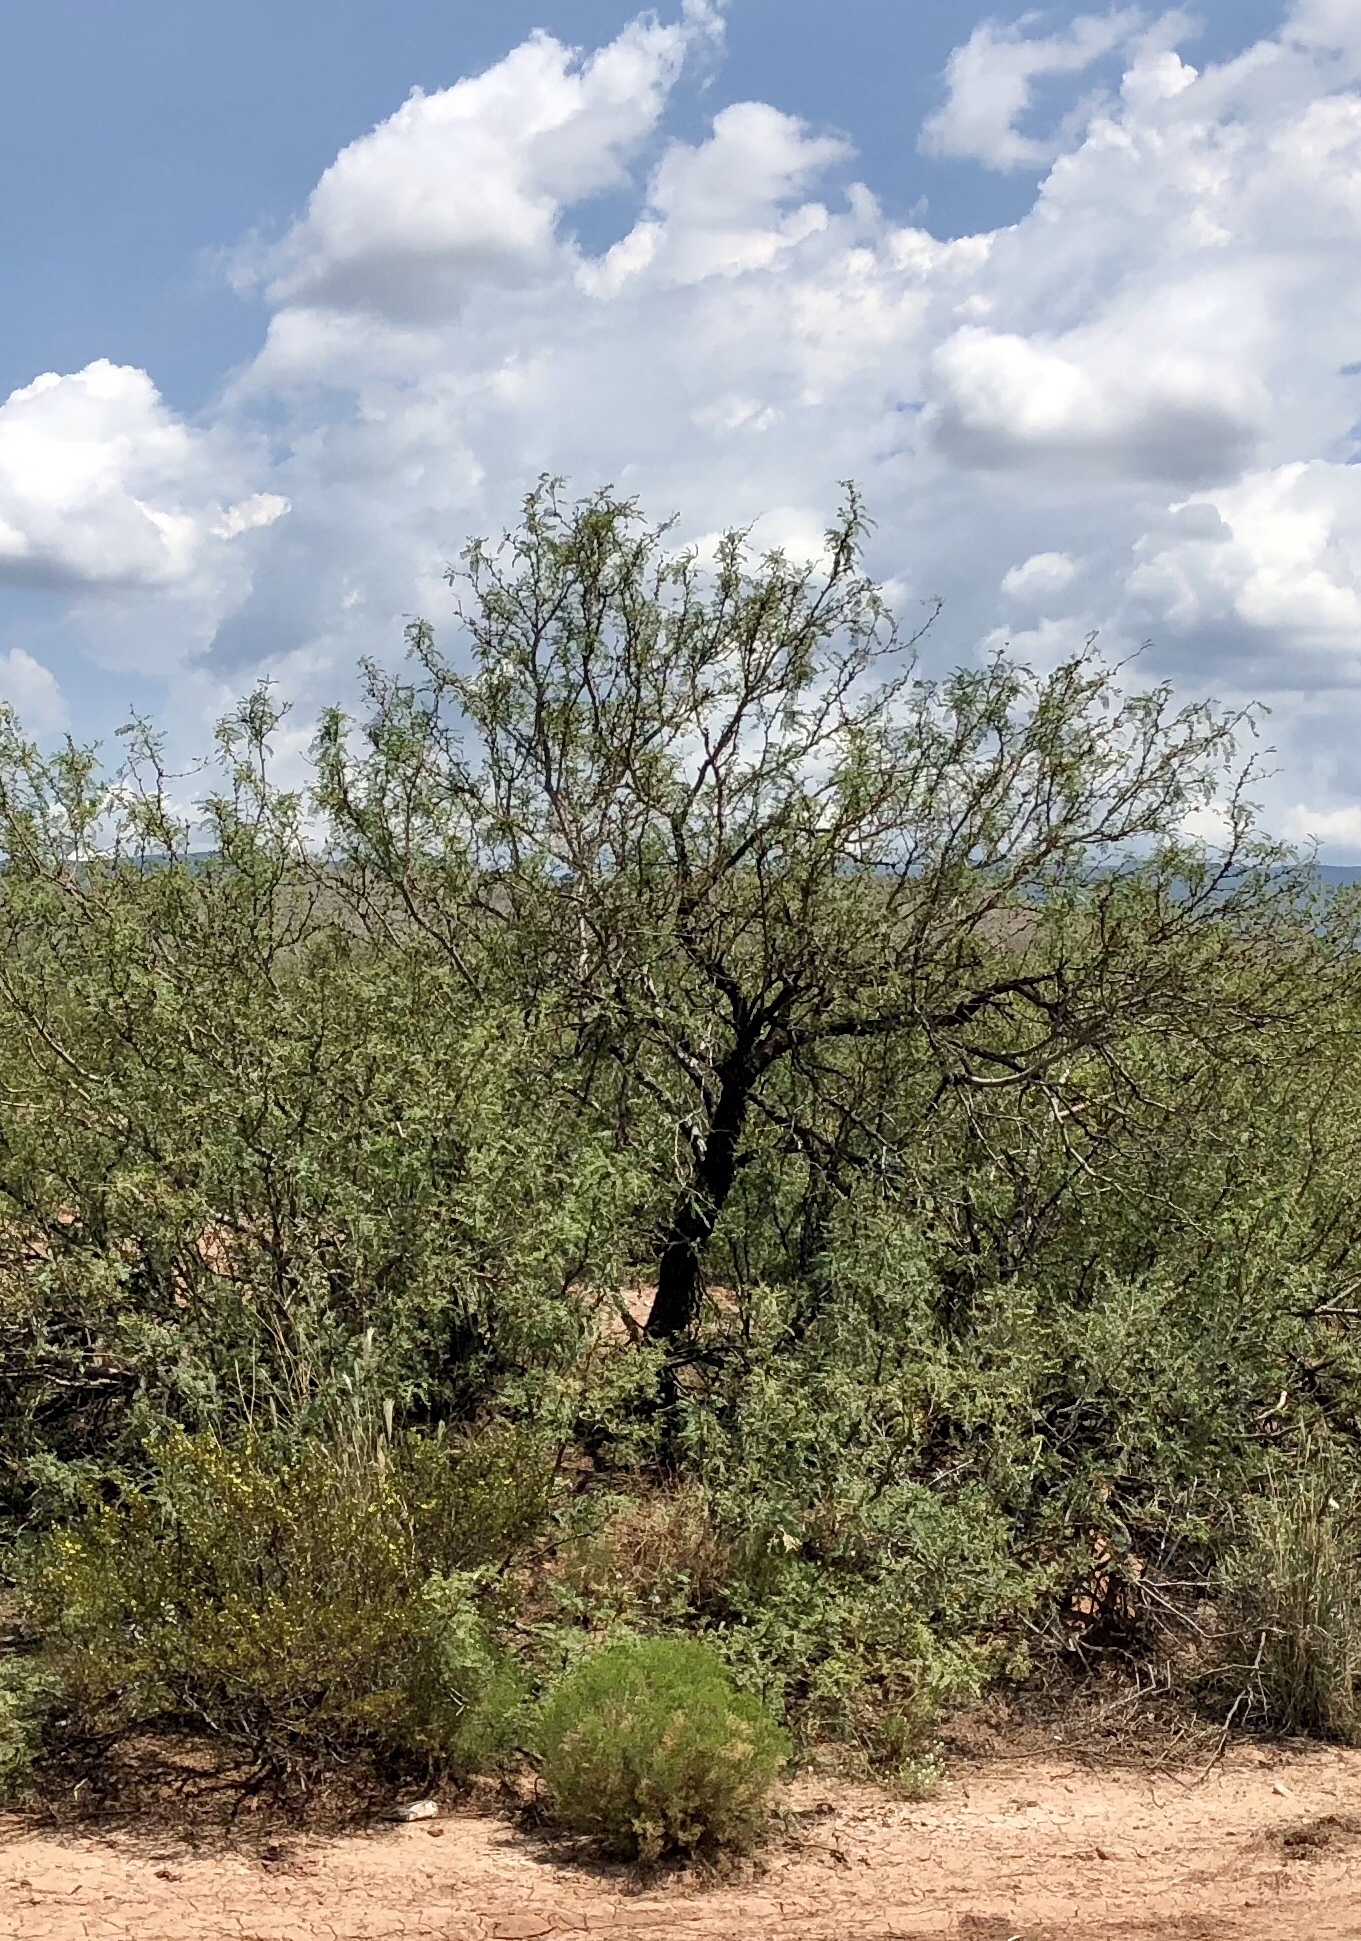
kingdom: Plantae
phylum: Tracheophyta
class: Magnoliopsida
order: Fabales
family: Fabaceae
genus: Prosopis
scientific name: Prosopis glandulosa
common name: Honey mesquite
